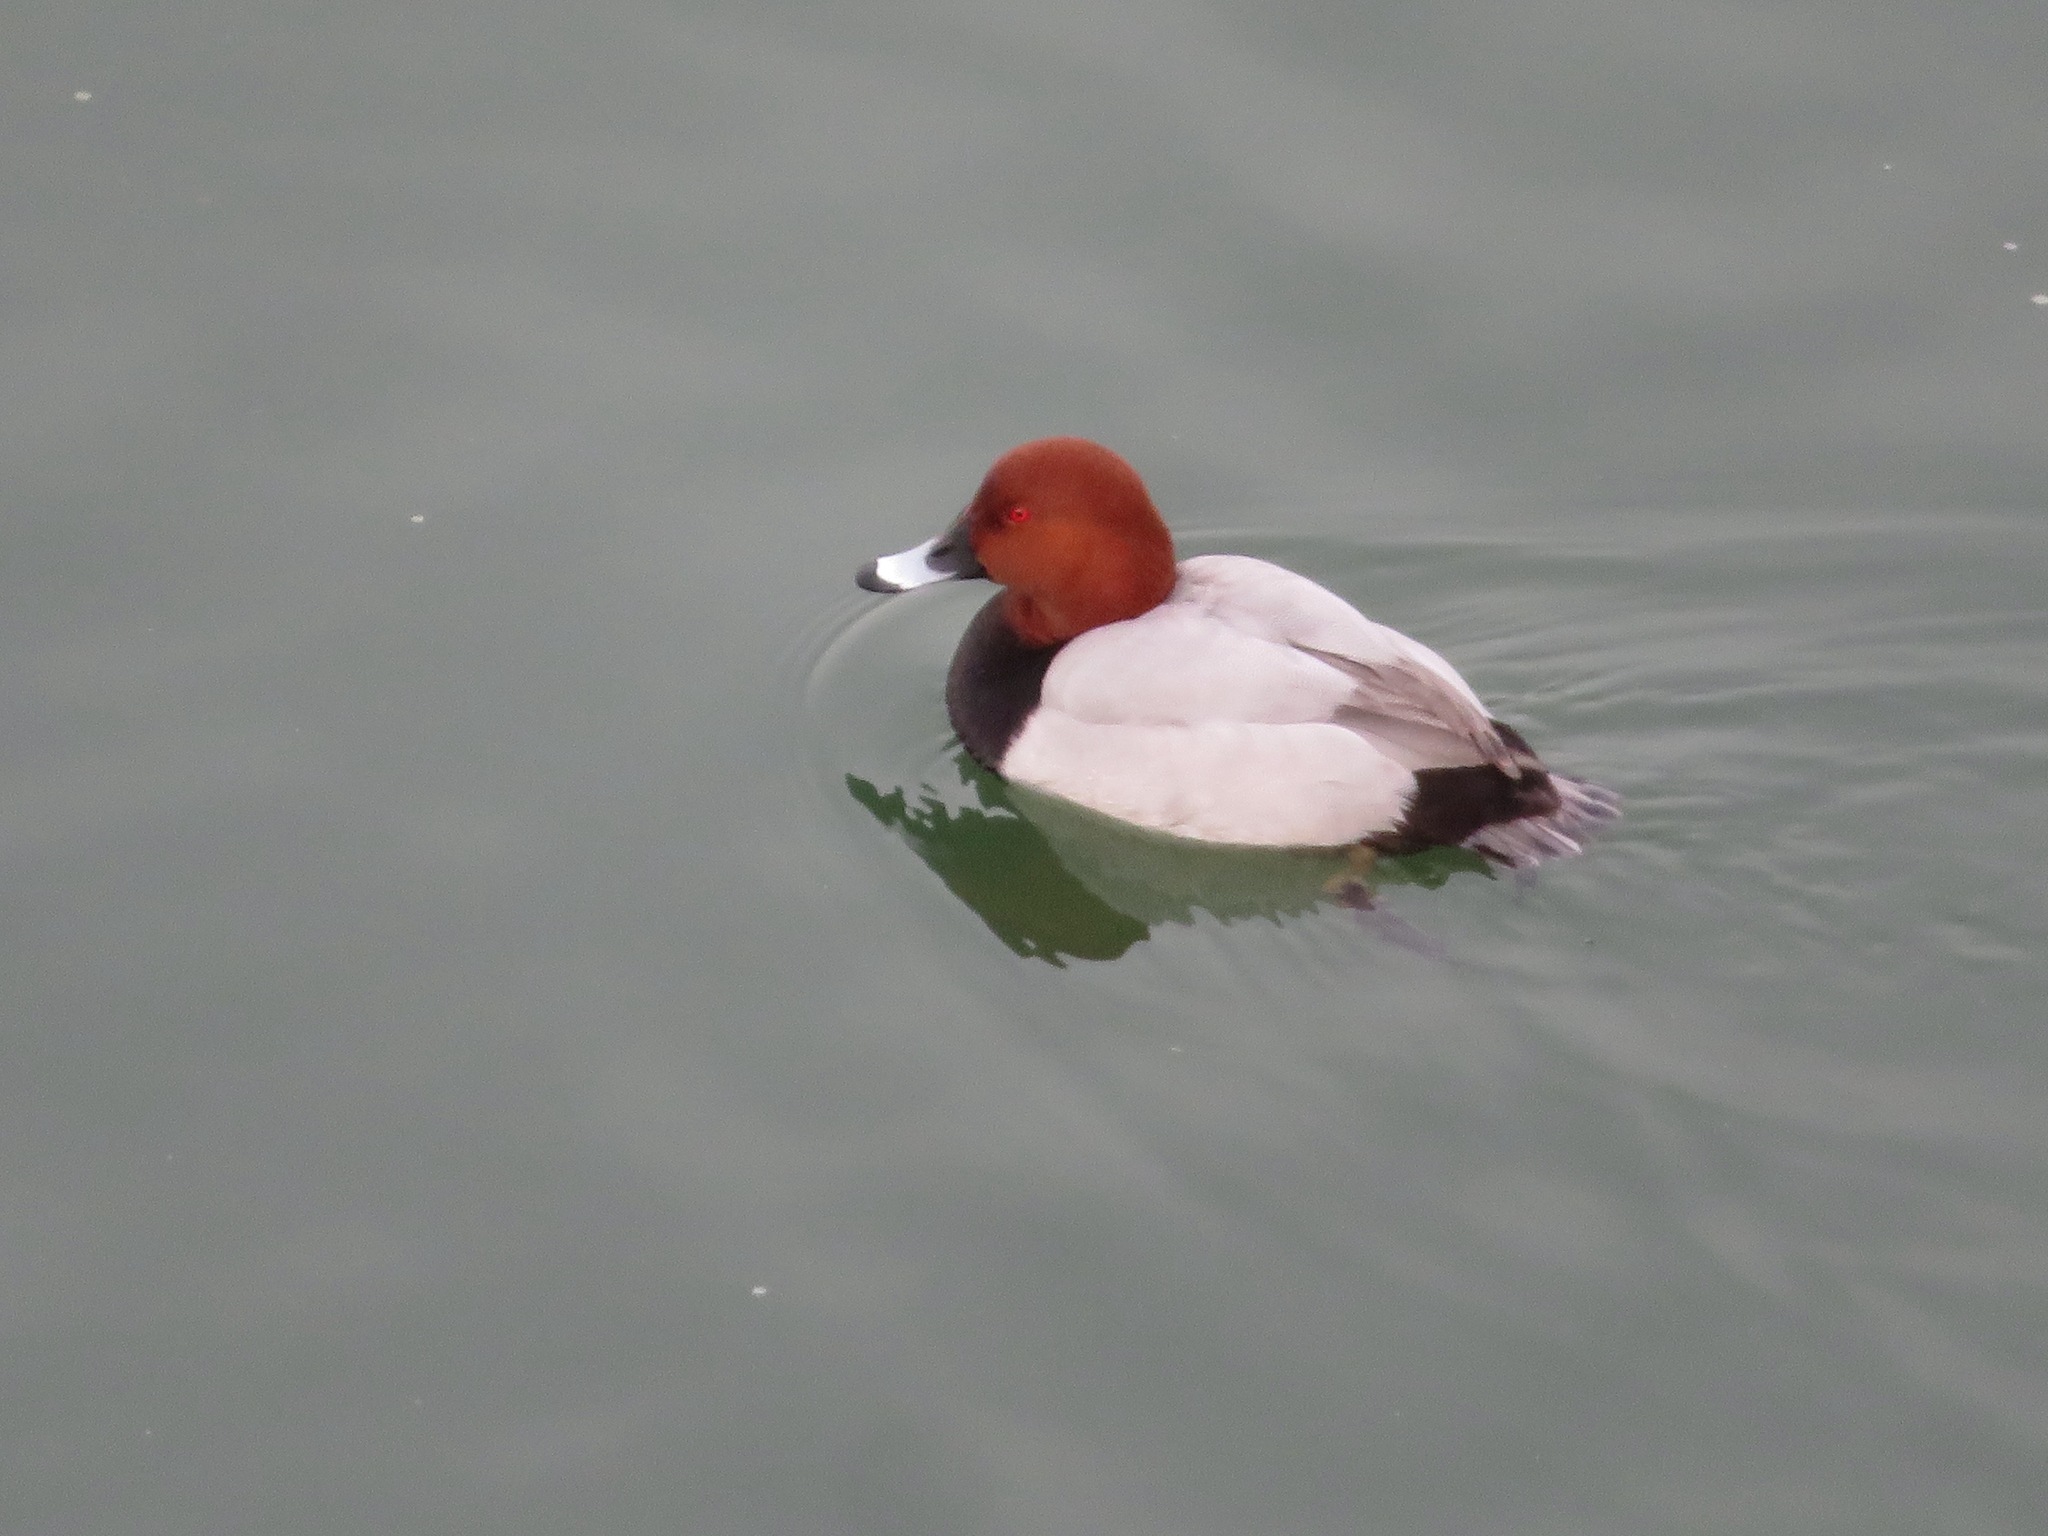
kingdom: Animalia
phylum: Chordata
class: Aves
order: Anseriformes
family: Anatidae
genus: Aythya
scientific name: Aythya ferina
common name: Common pochard
